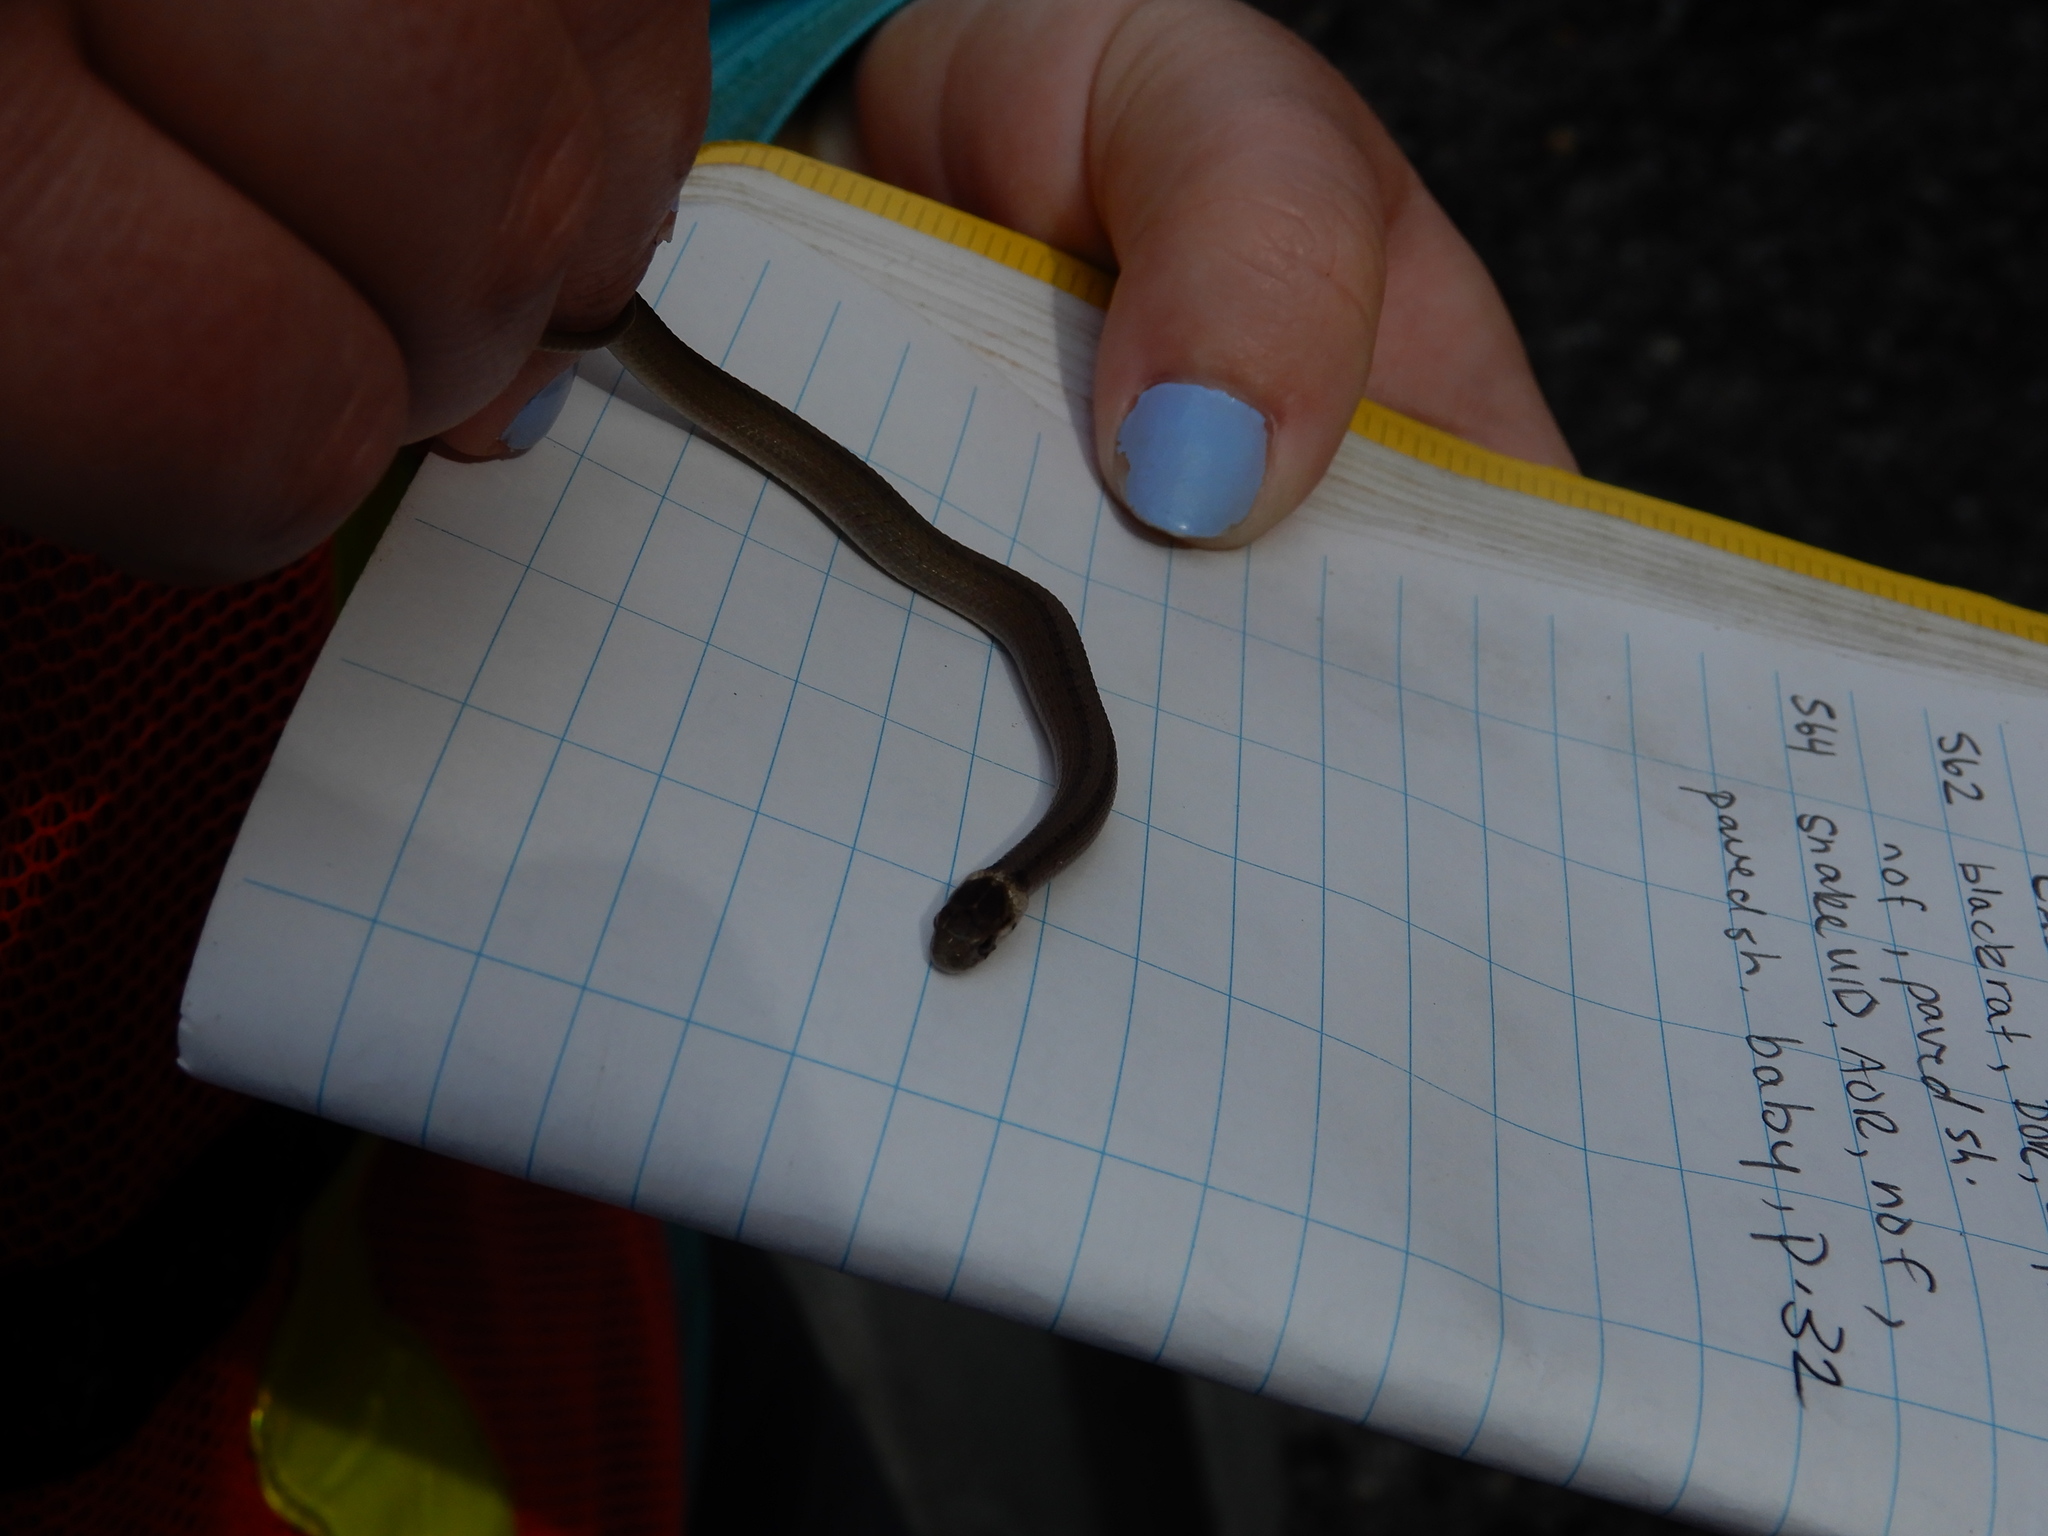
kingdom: Animalia
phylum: Chordata
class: Squamata
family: Colubridae
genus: Storeria
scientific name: Storeria dekayi
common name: (dekay’s) brown snake
